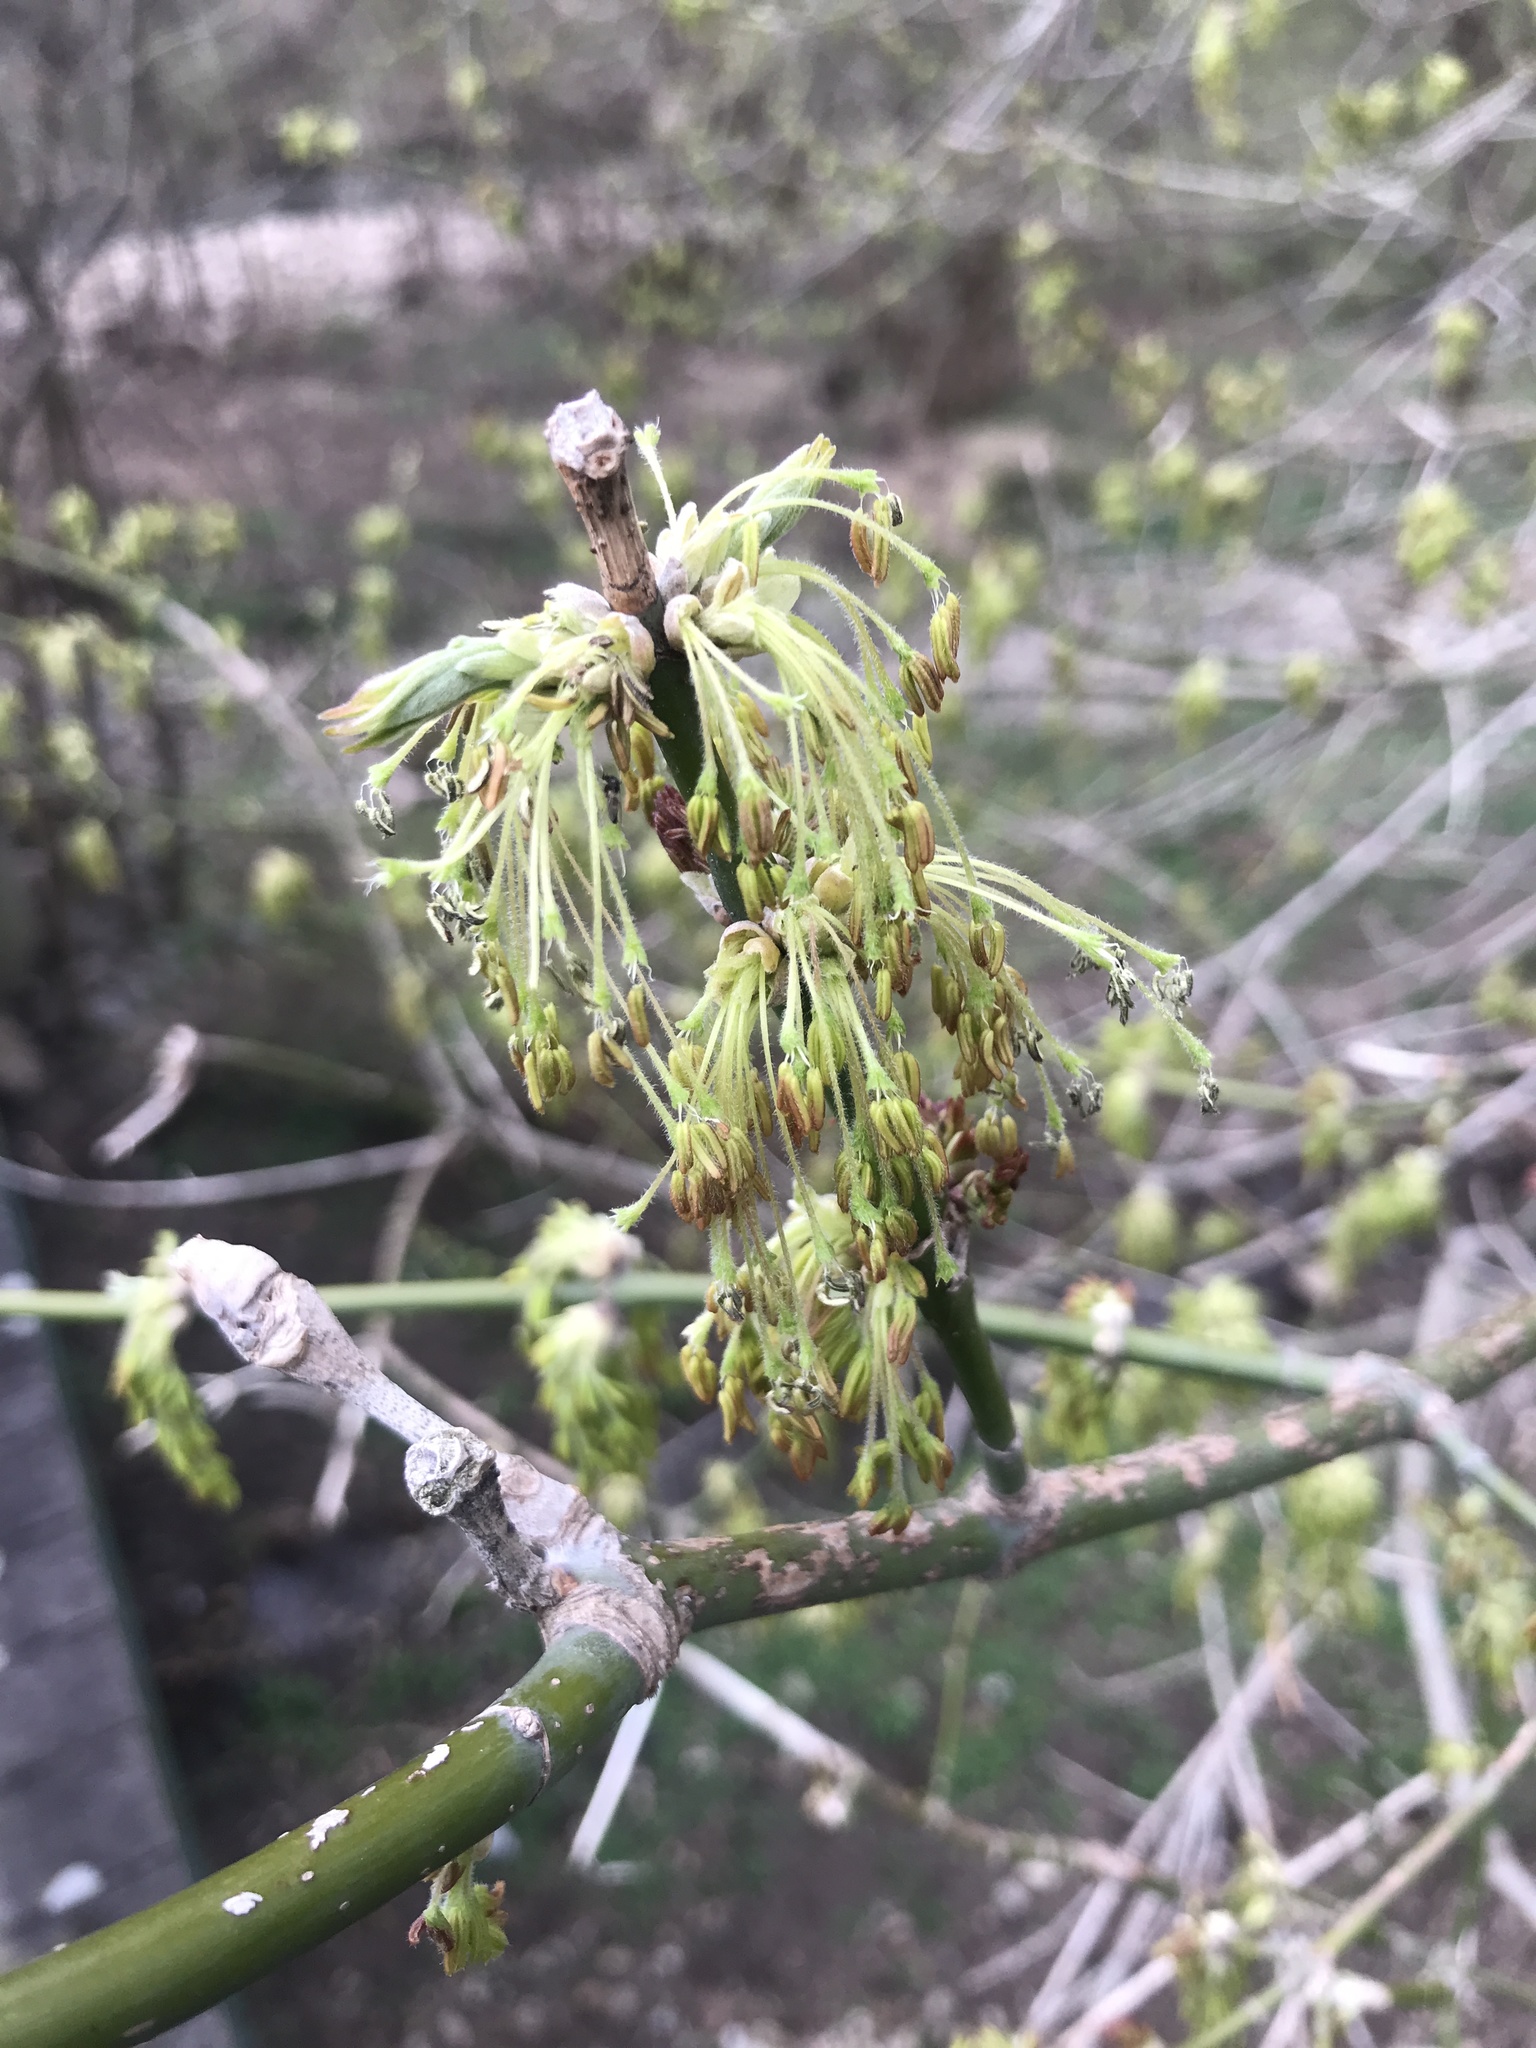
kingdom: Plantae
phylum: Tracheophyta
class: Magnoliopsida
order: Sapindales
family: Sapindaceae
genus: Acer
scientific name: Acer negundo
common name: Ashleaf maple
